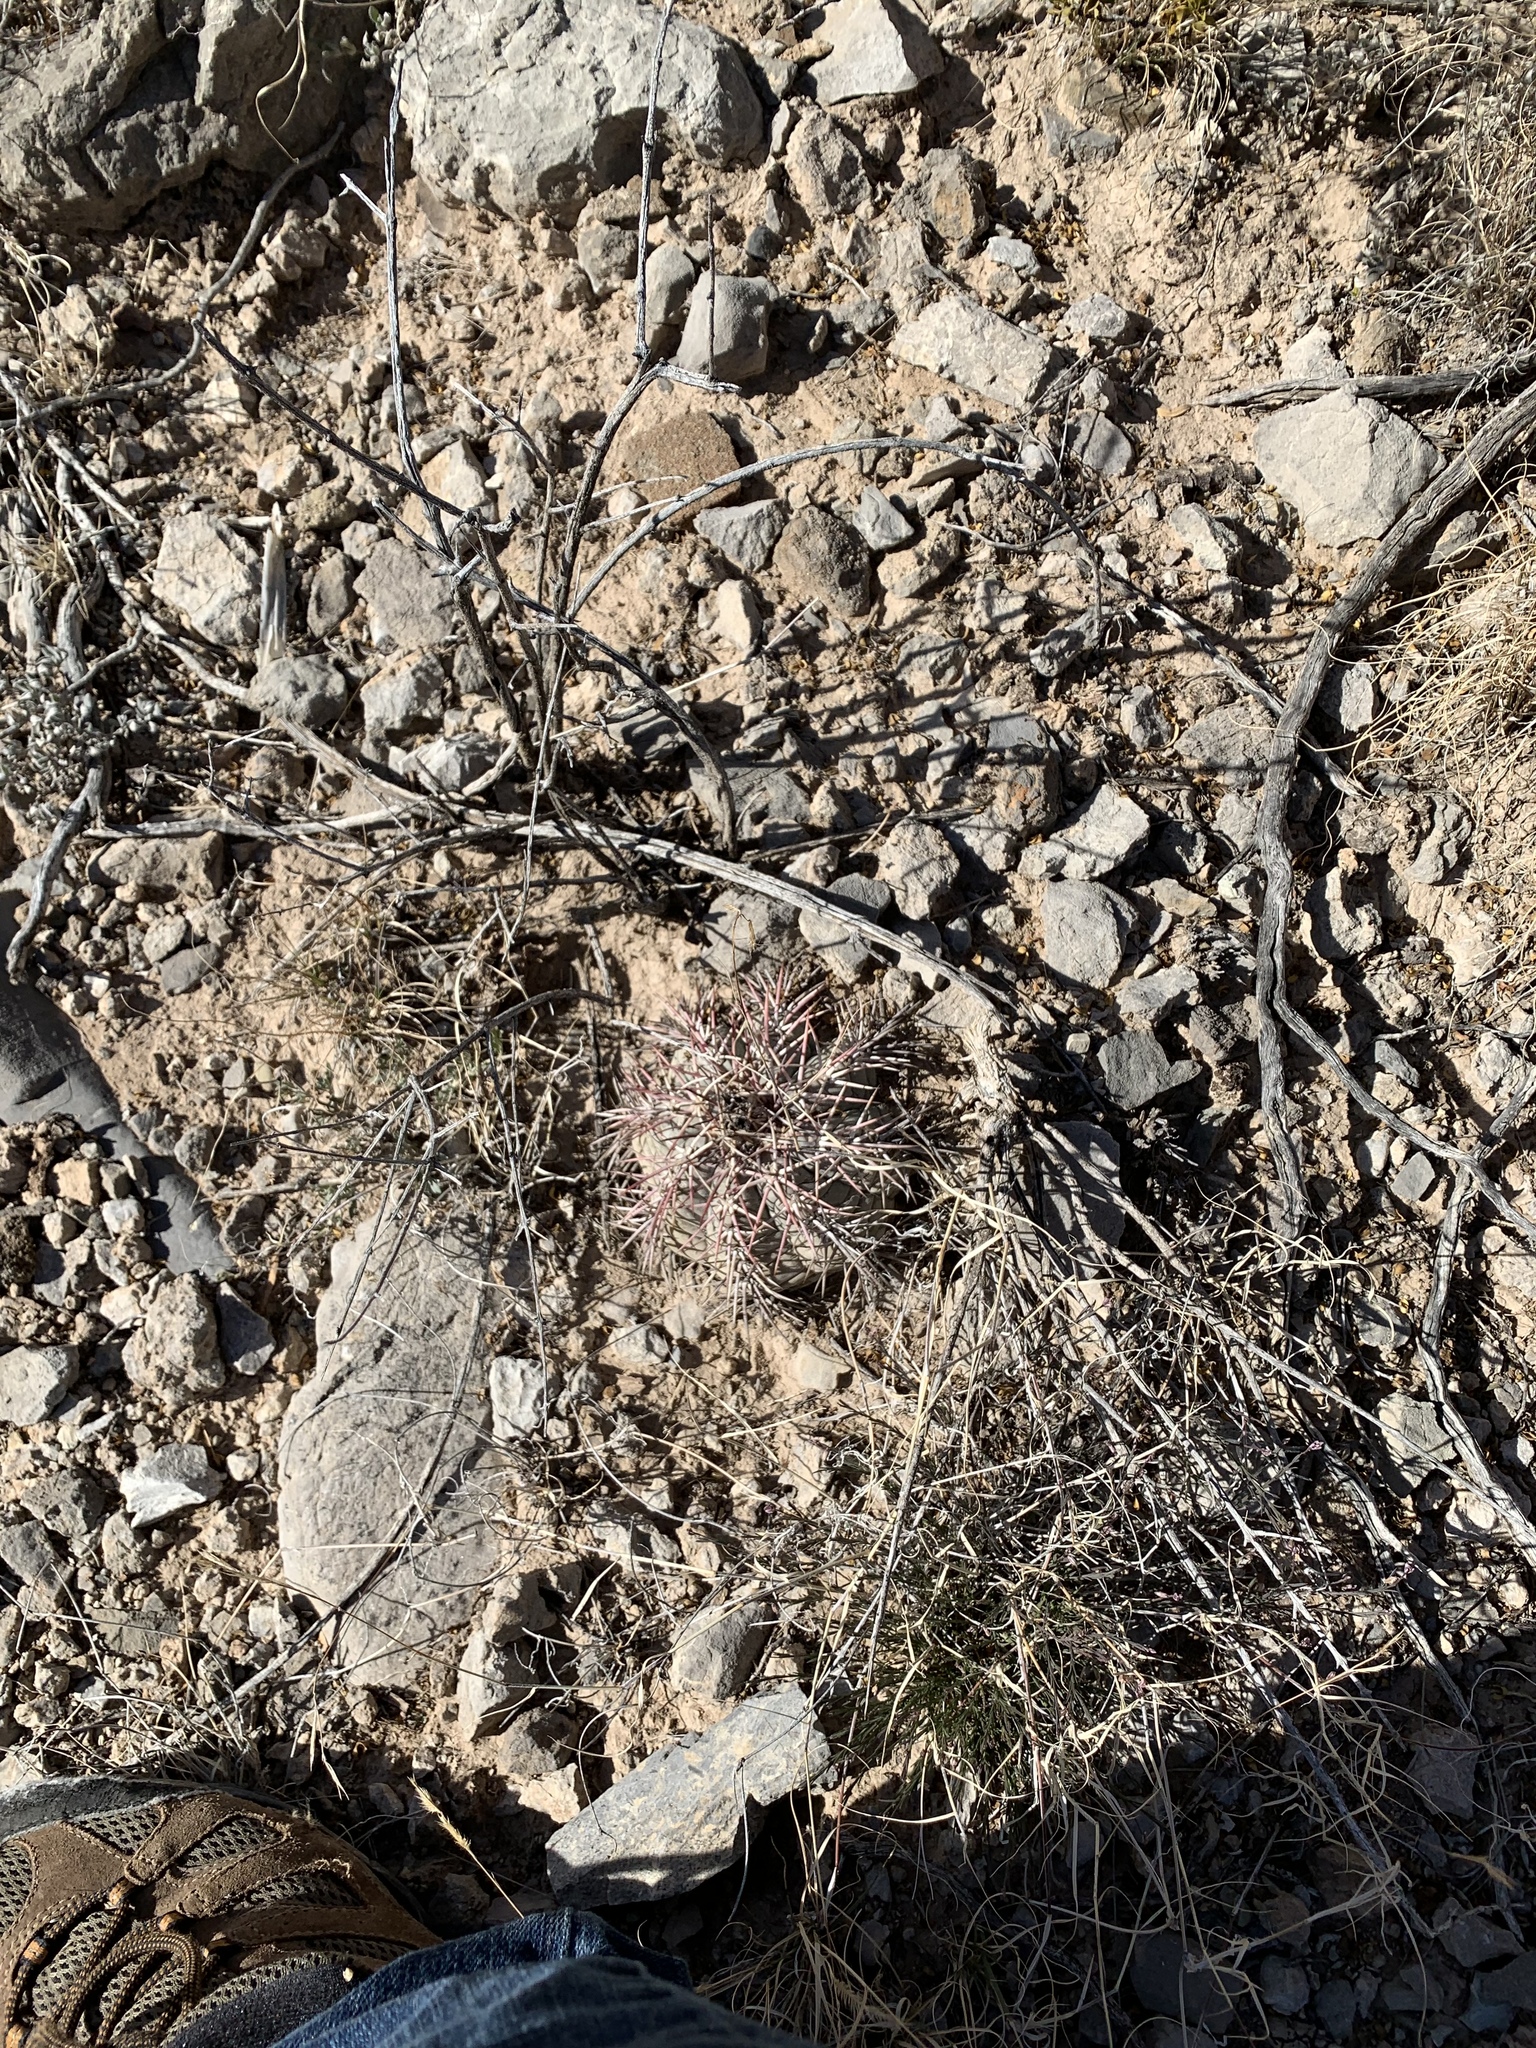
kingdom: Plantae
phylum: Tracheophyta
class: Magnoliopsida
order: Caryophyllales
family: Cactaceae
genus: Echinocactus
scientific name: Echinocactus horizonthalonius
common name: Devilshead
